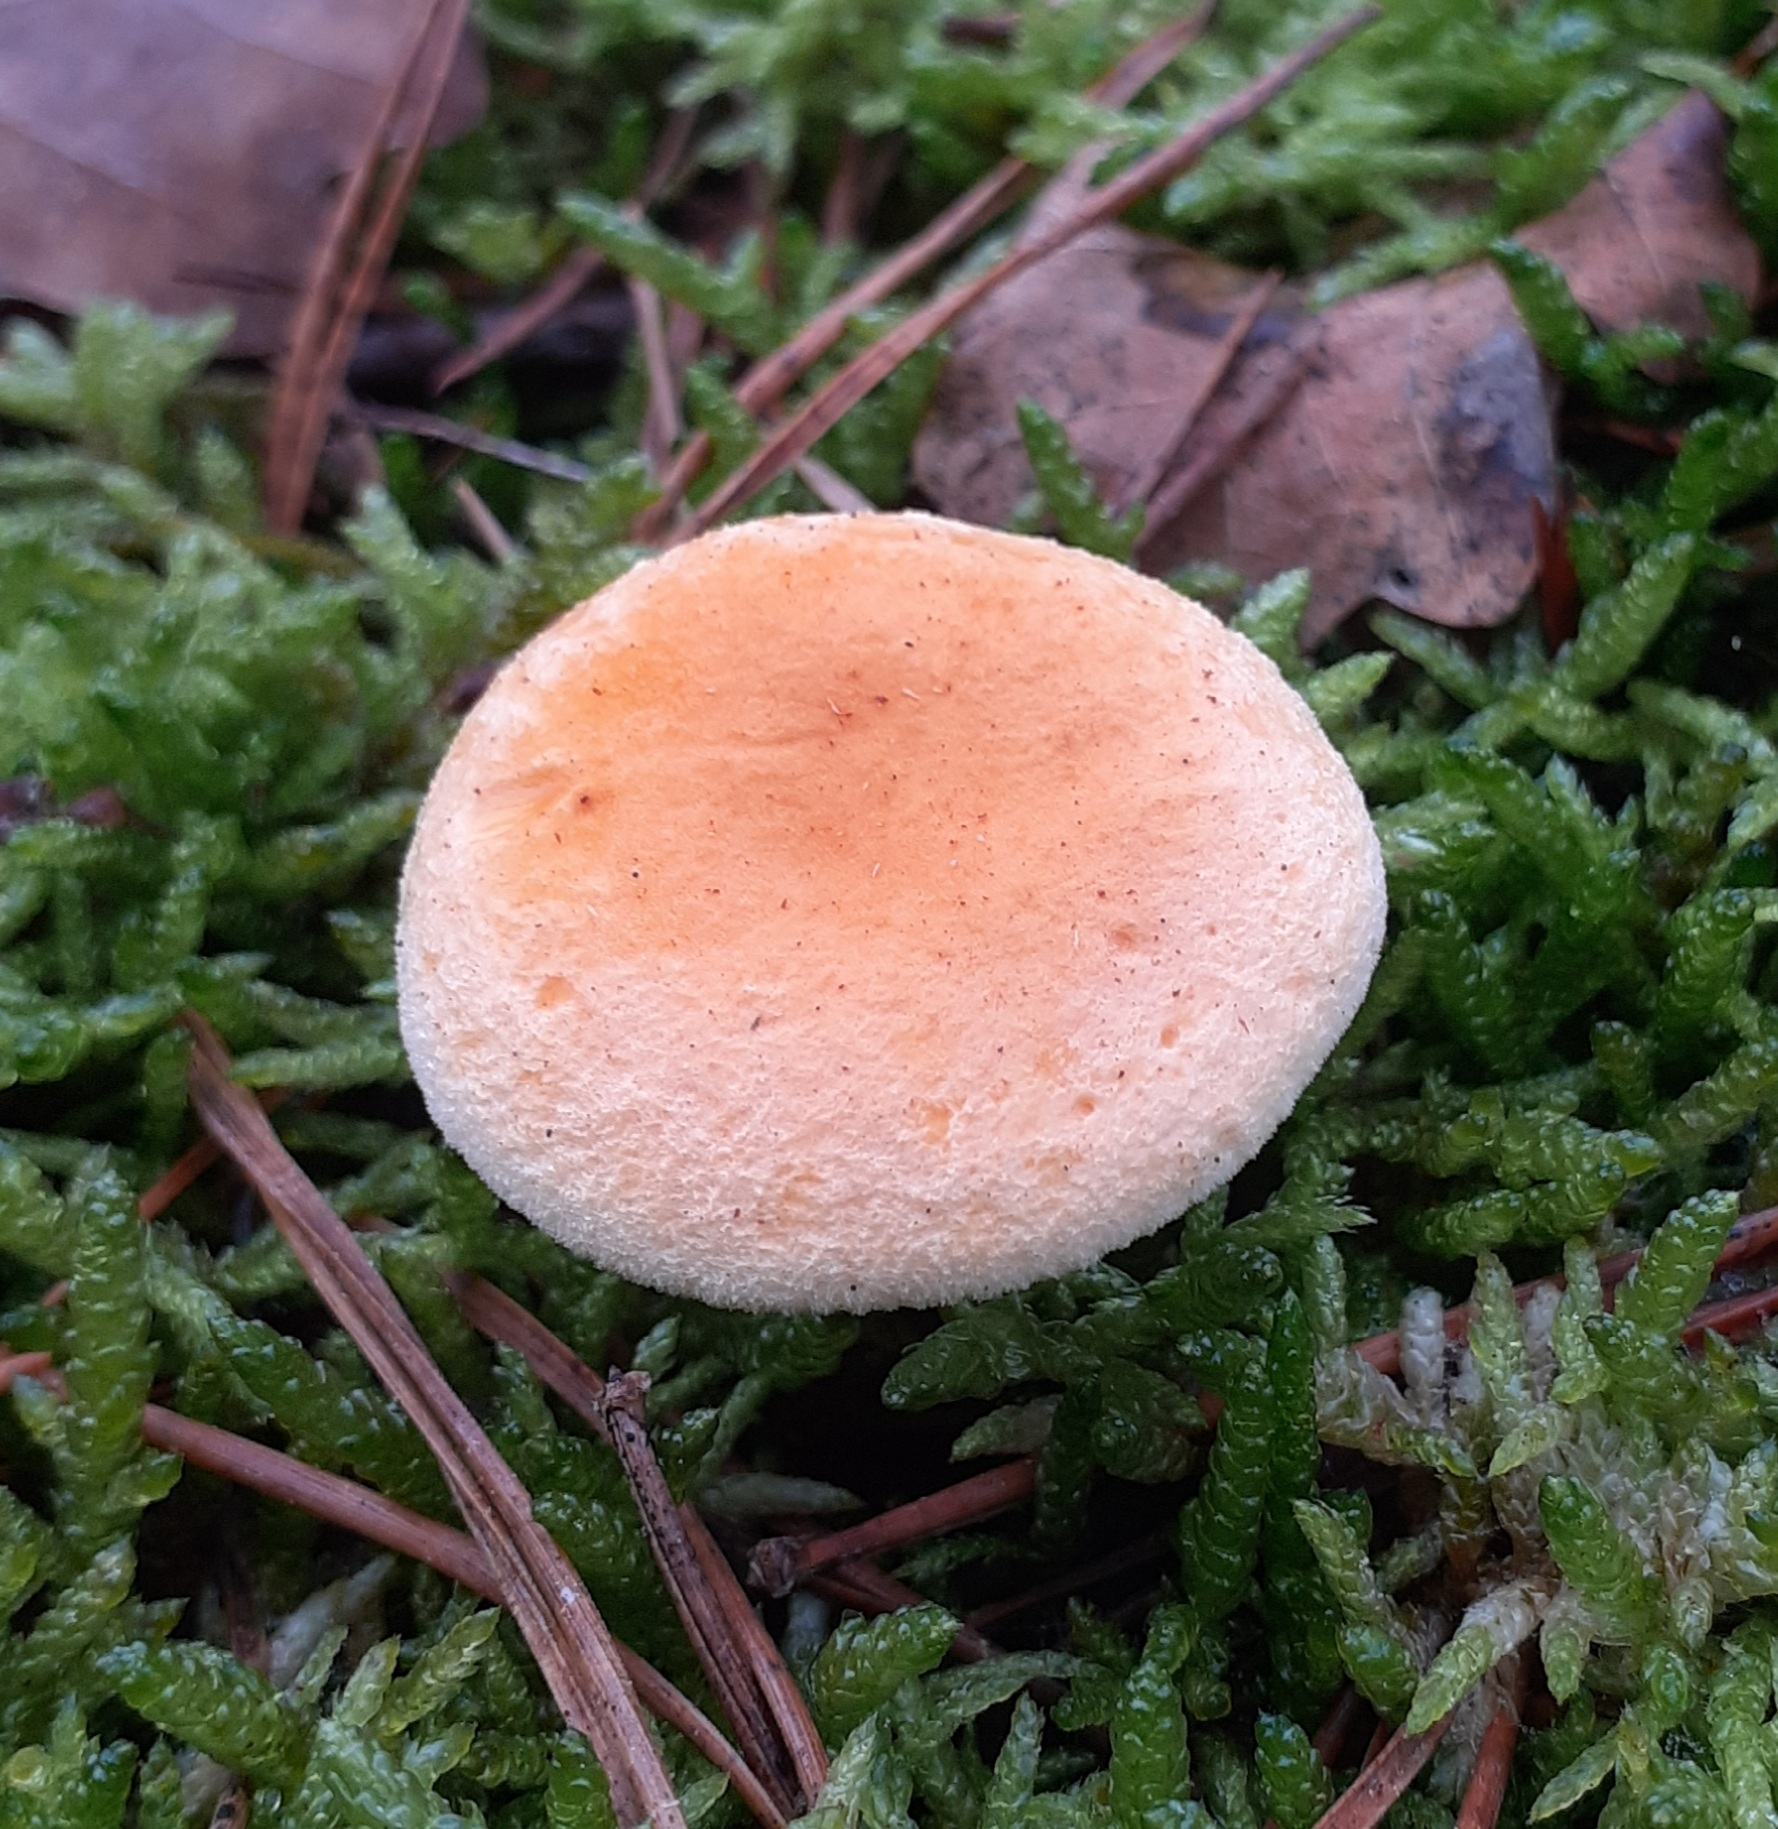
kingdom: Fungi
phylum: Basidiomycota
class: Agaricomycetes
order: Boletales
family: Hygrophoropsidaceae
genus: Hygrophoropsis
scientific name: Hygrophoropsis aurantiaca
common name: False chanterelle
